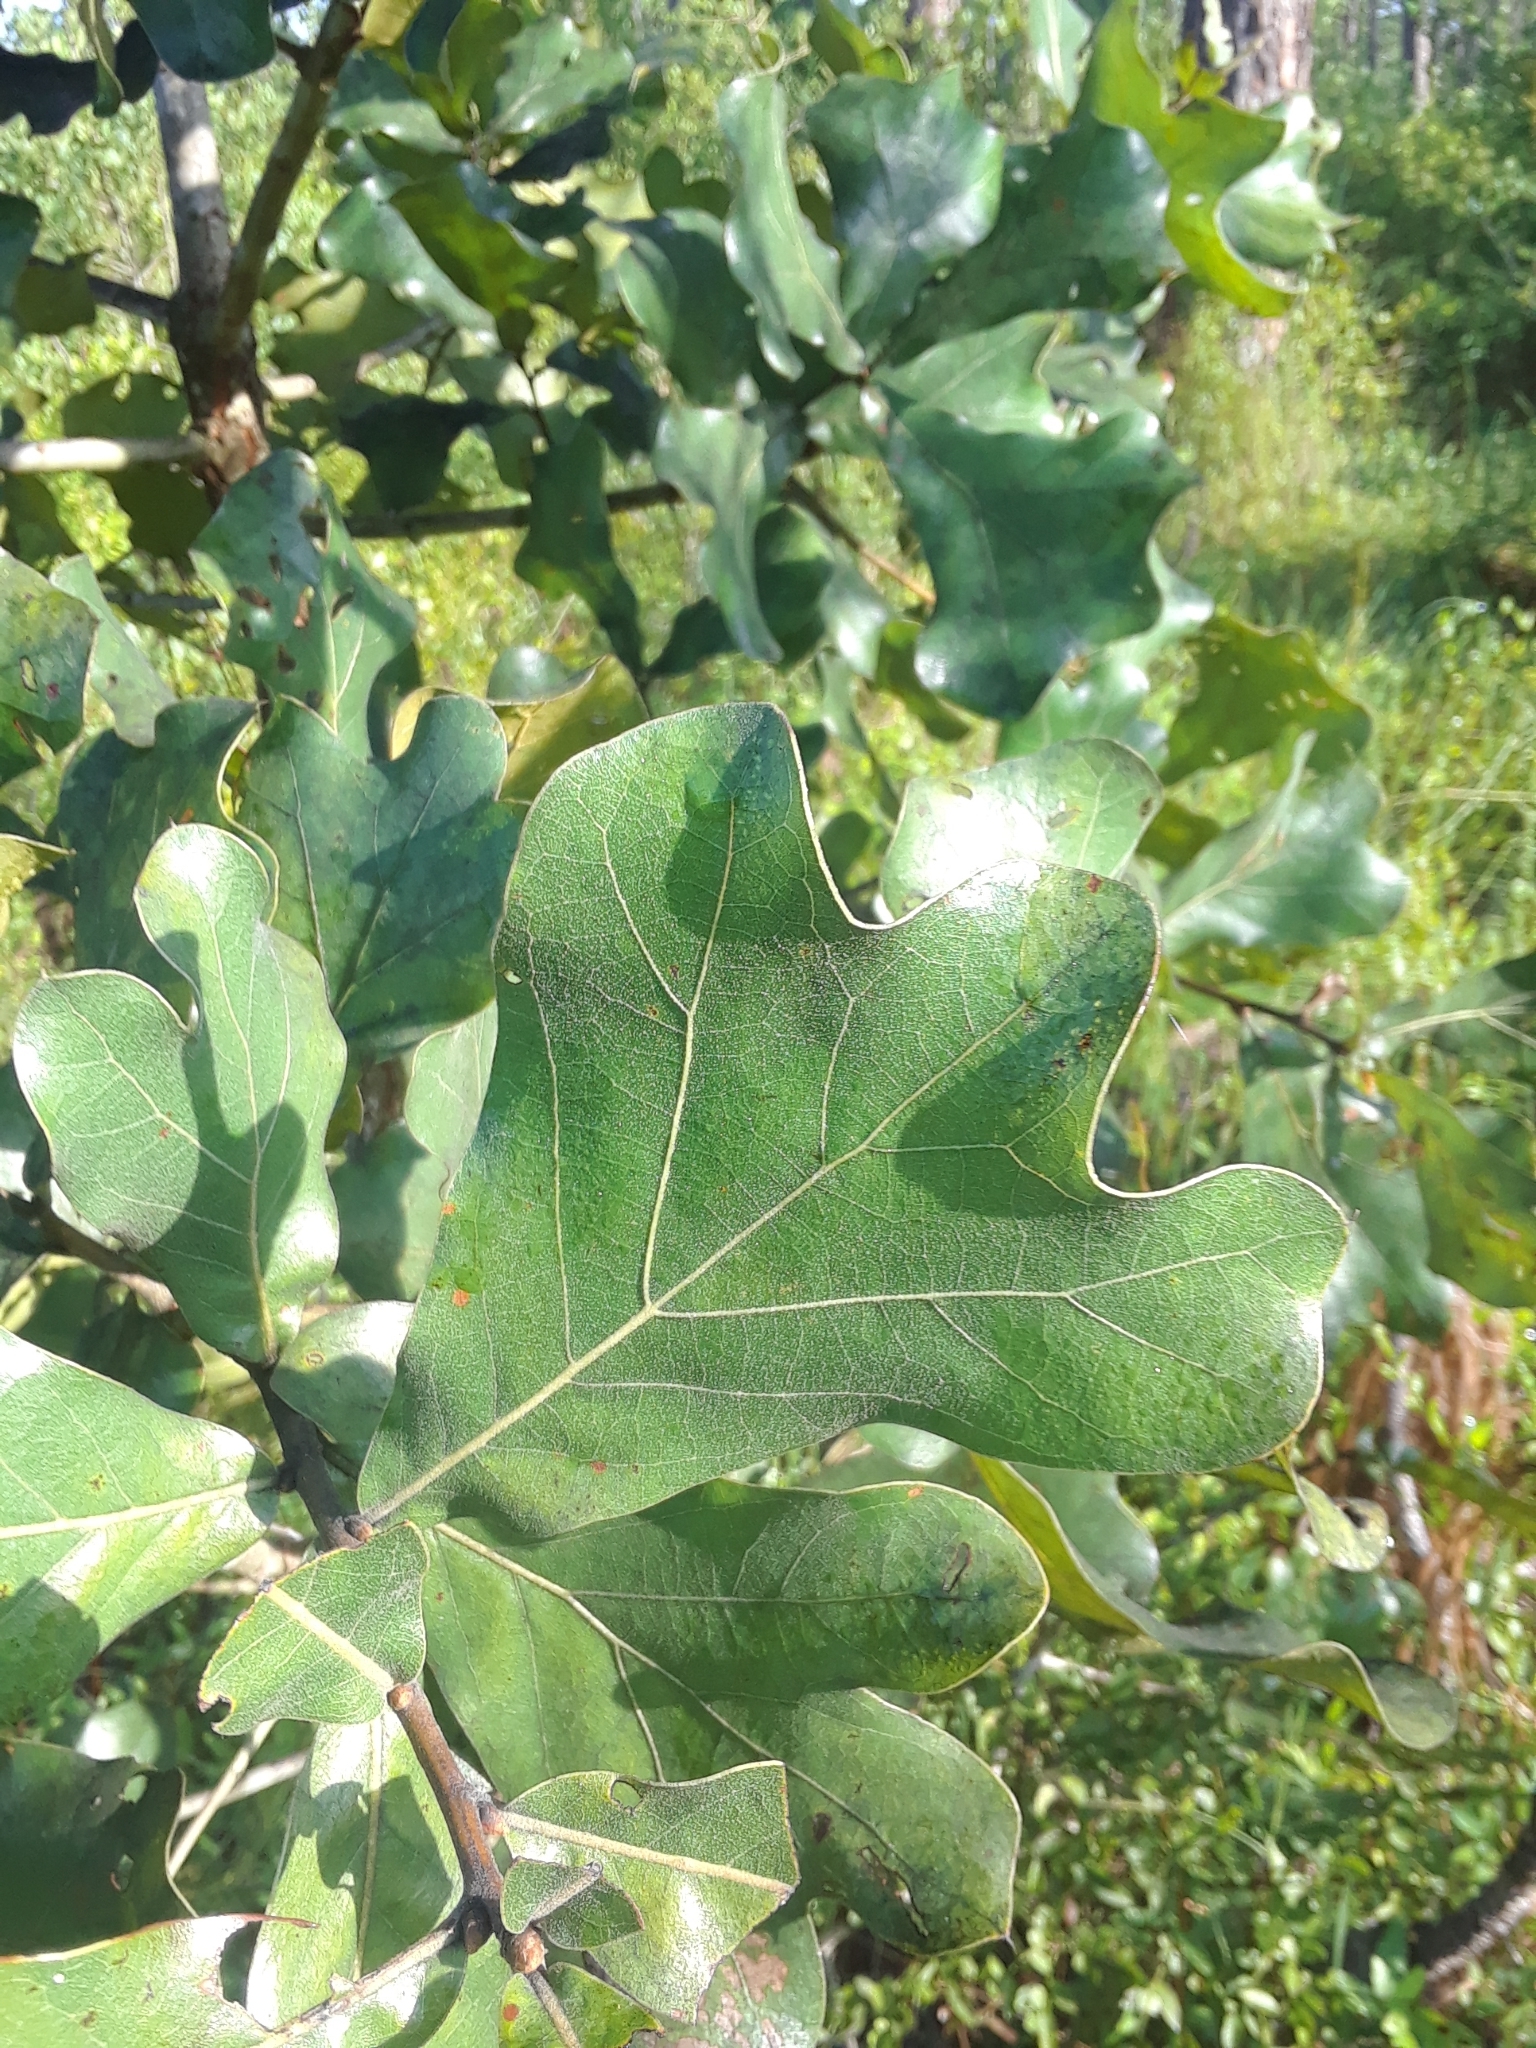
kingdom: Plantae
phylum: Tracheophyta
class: Magnoliopsida
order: Fagales
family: Fagaceae
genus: Quercus
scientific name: Quercus marilandica
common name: Blackjack oak
